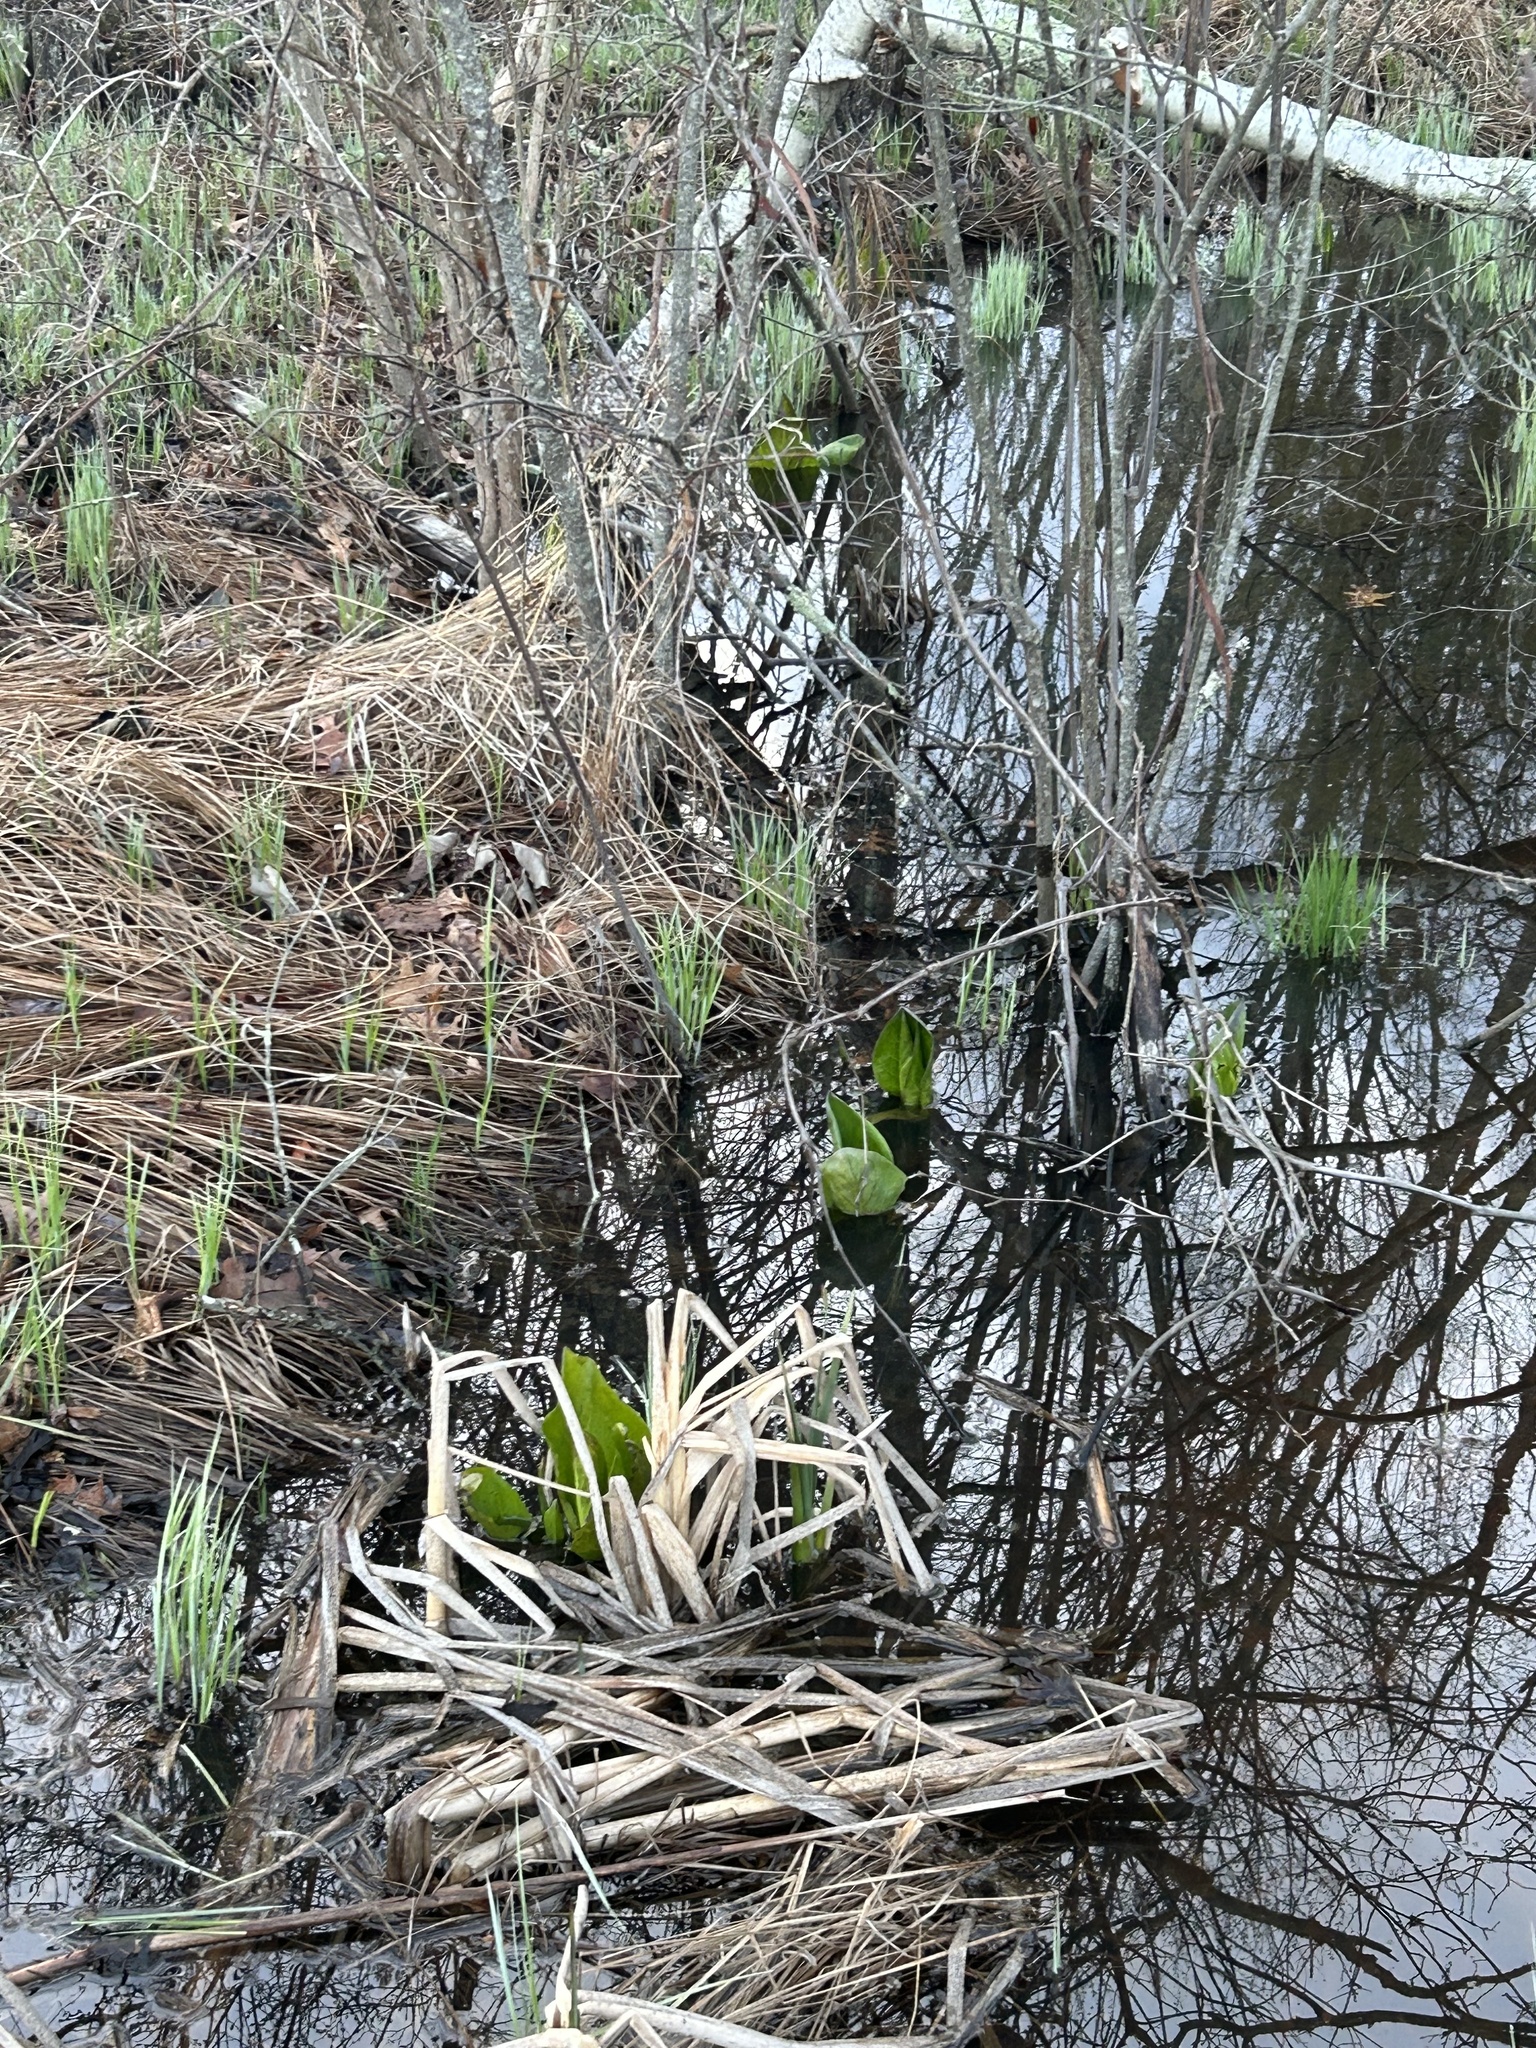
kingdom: Plantae
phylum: Tracheophyta
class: Liliopsida
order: Alismatales
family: Araceae
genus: Symplocarpus
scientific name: Symplocarpus foetidus
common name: Eastern skunk cabbage
